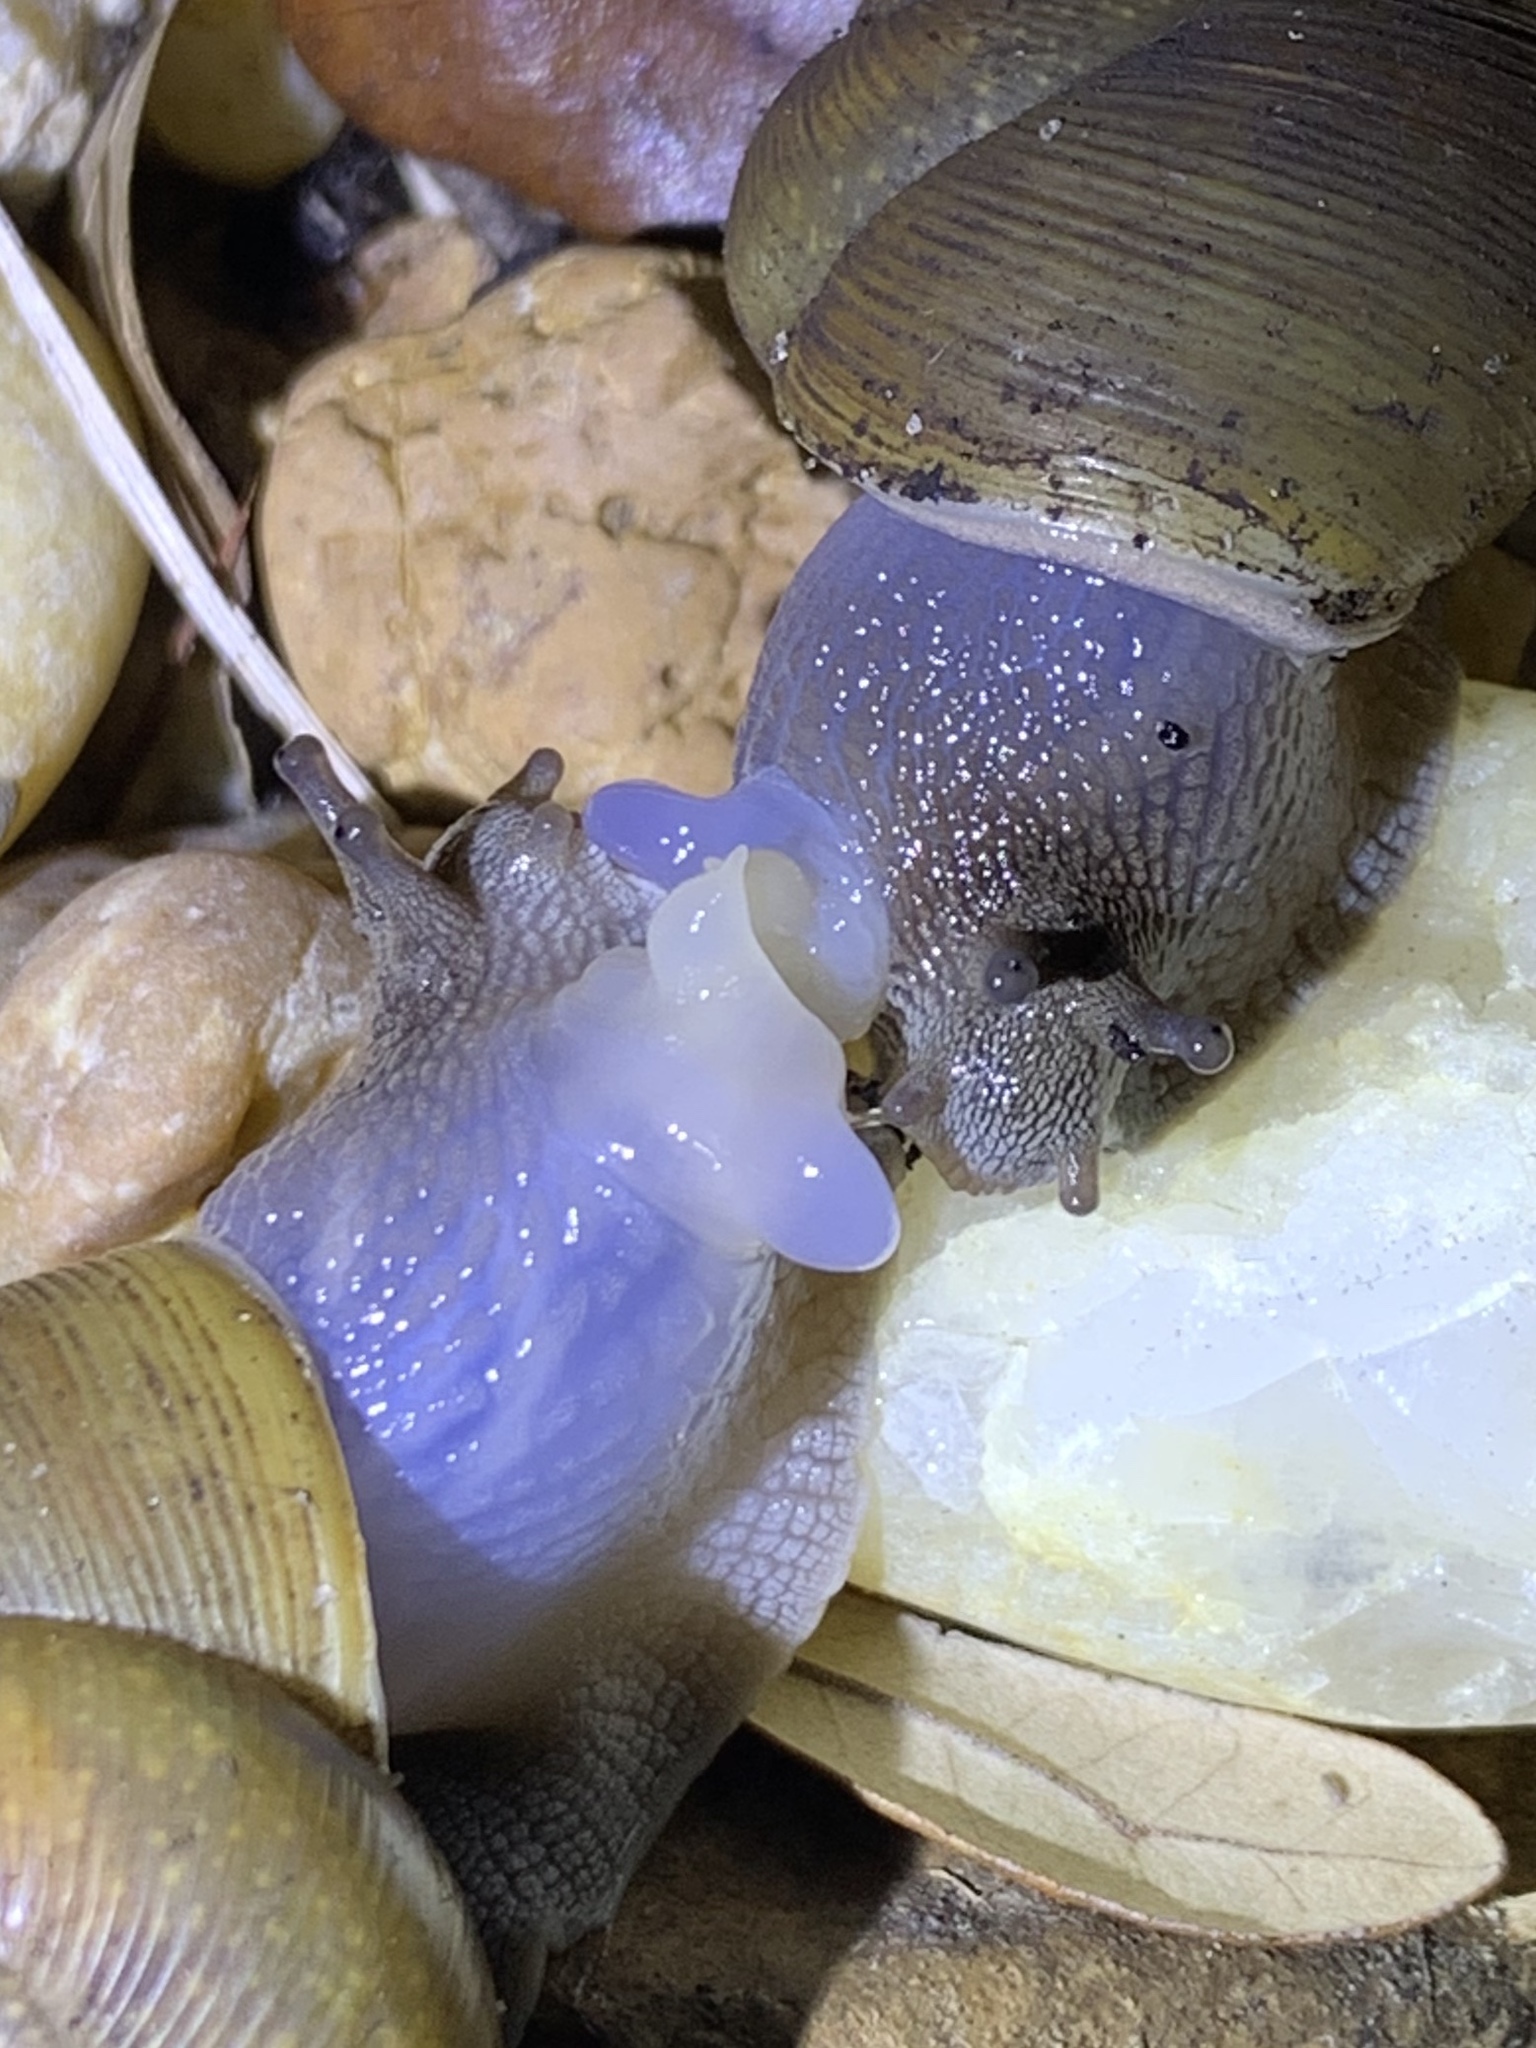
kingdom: Animalia
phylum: Mollusca
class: Gastropoda
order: Stylommatophora
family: Zachrysiidae
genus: Zachrysia
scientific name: Zachrysia provisoria
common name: Garden zachrysia
